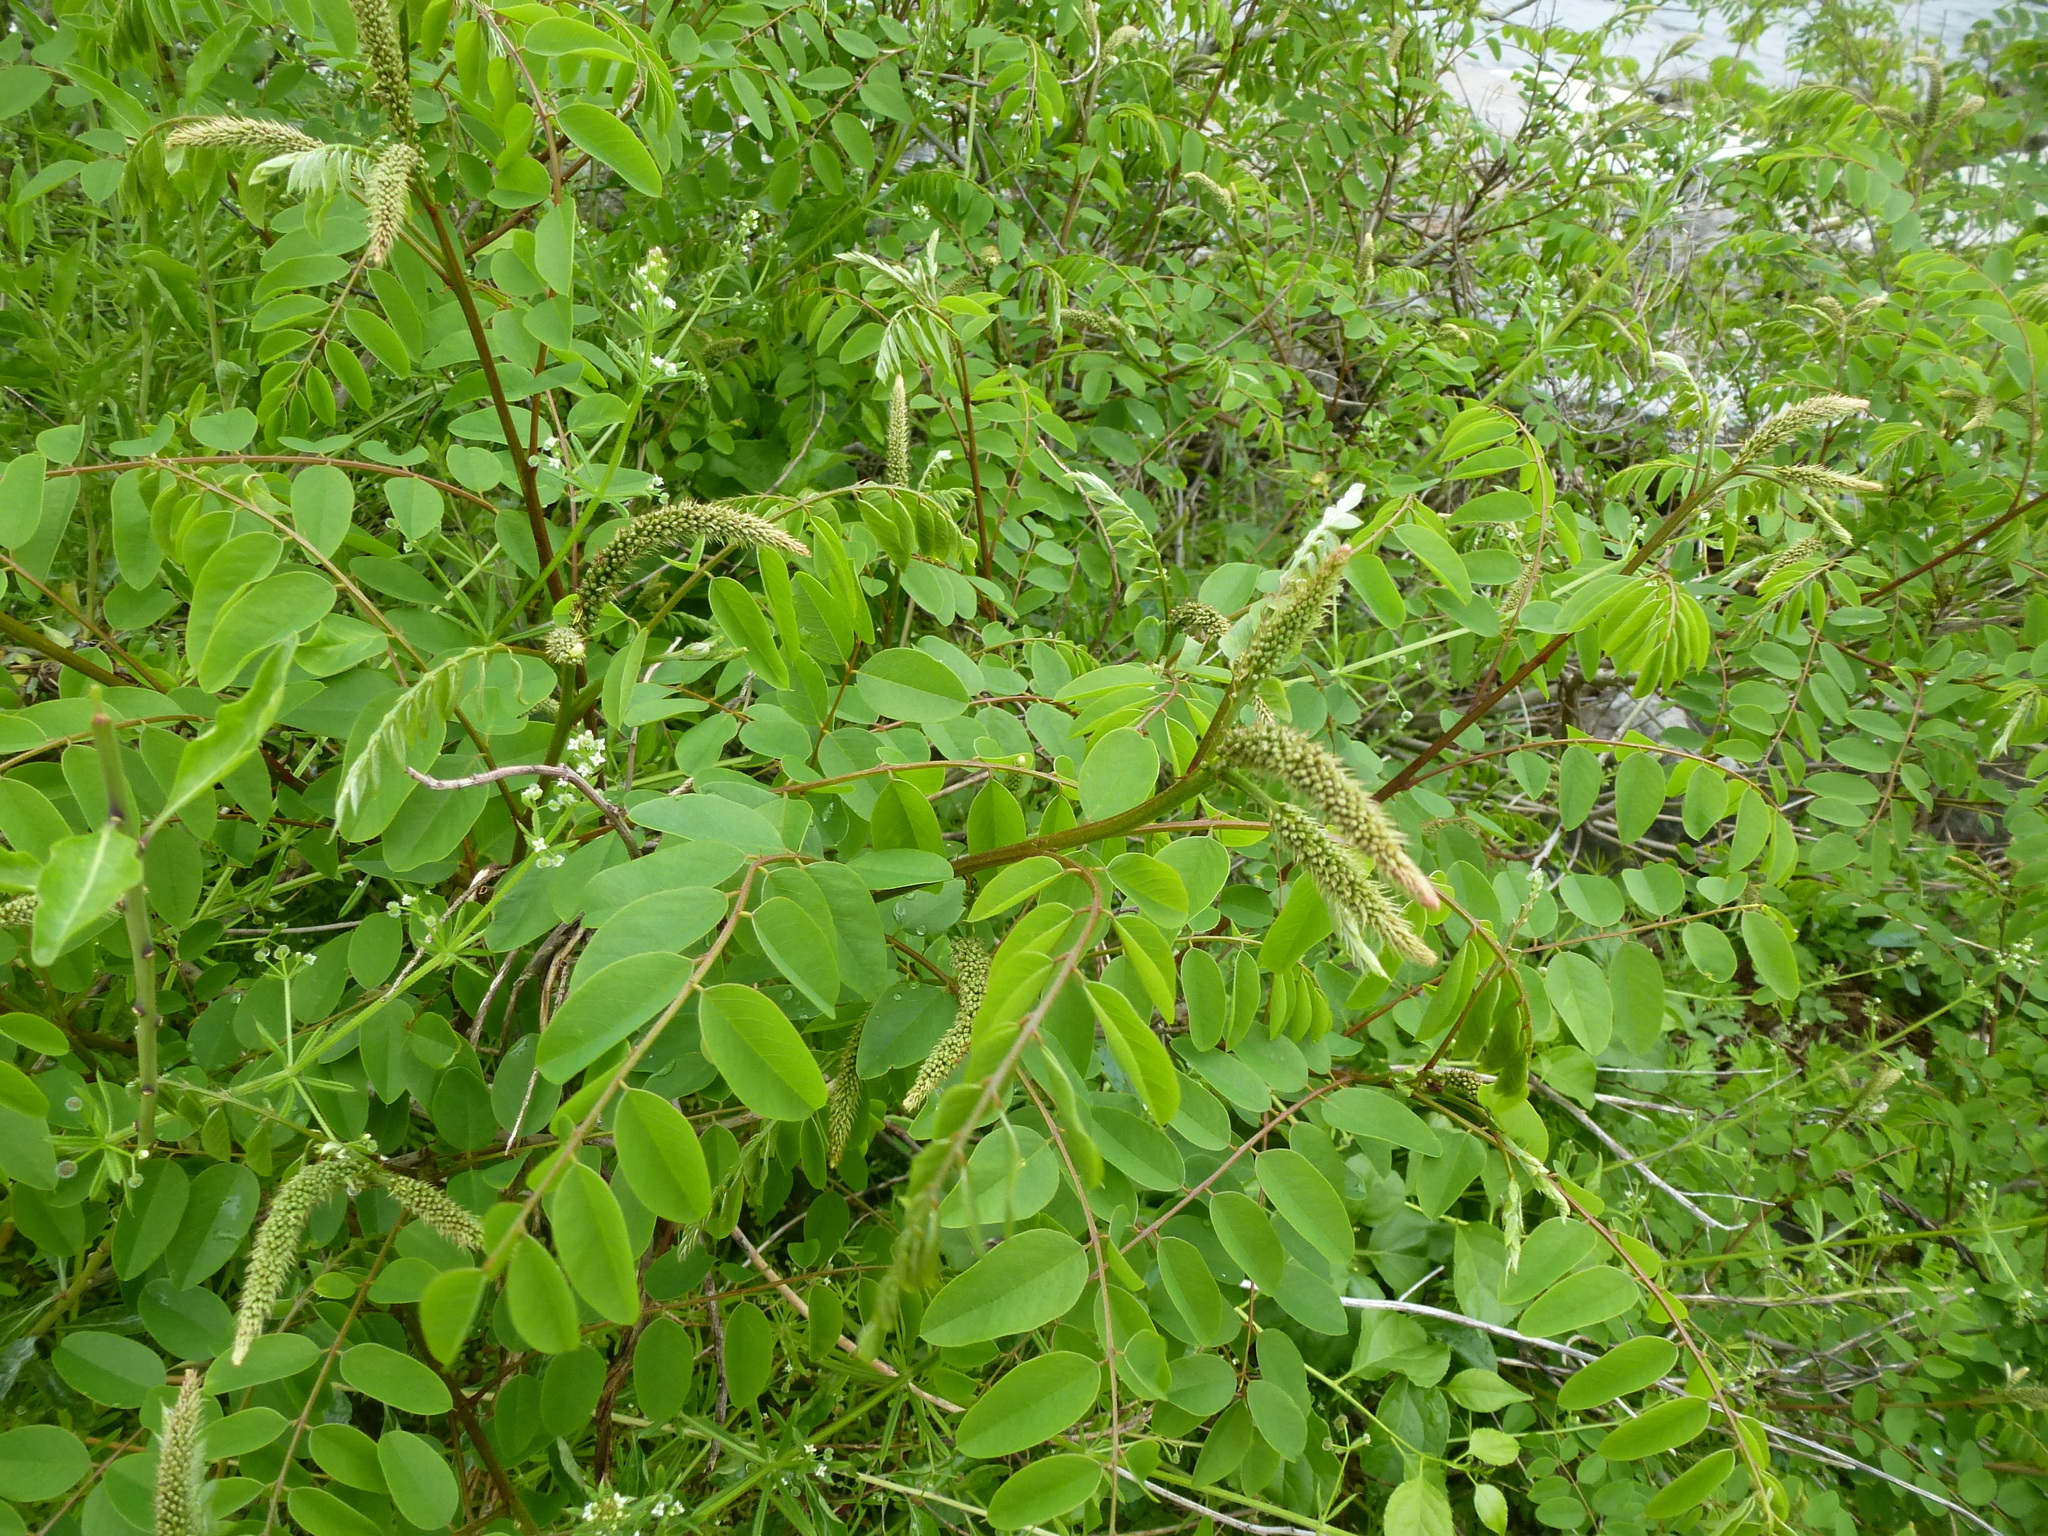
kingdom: Plantae
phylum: Tracheophyta
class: Magnoliopsida
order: Fabales
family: Fabaceae
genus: Amorpha
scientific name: Amorpha fruticosa
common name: False indigo
